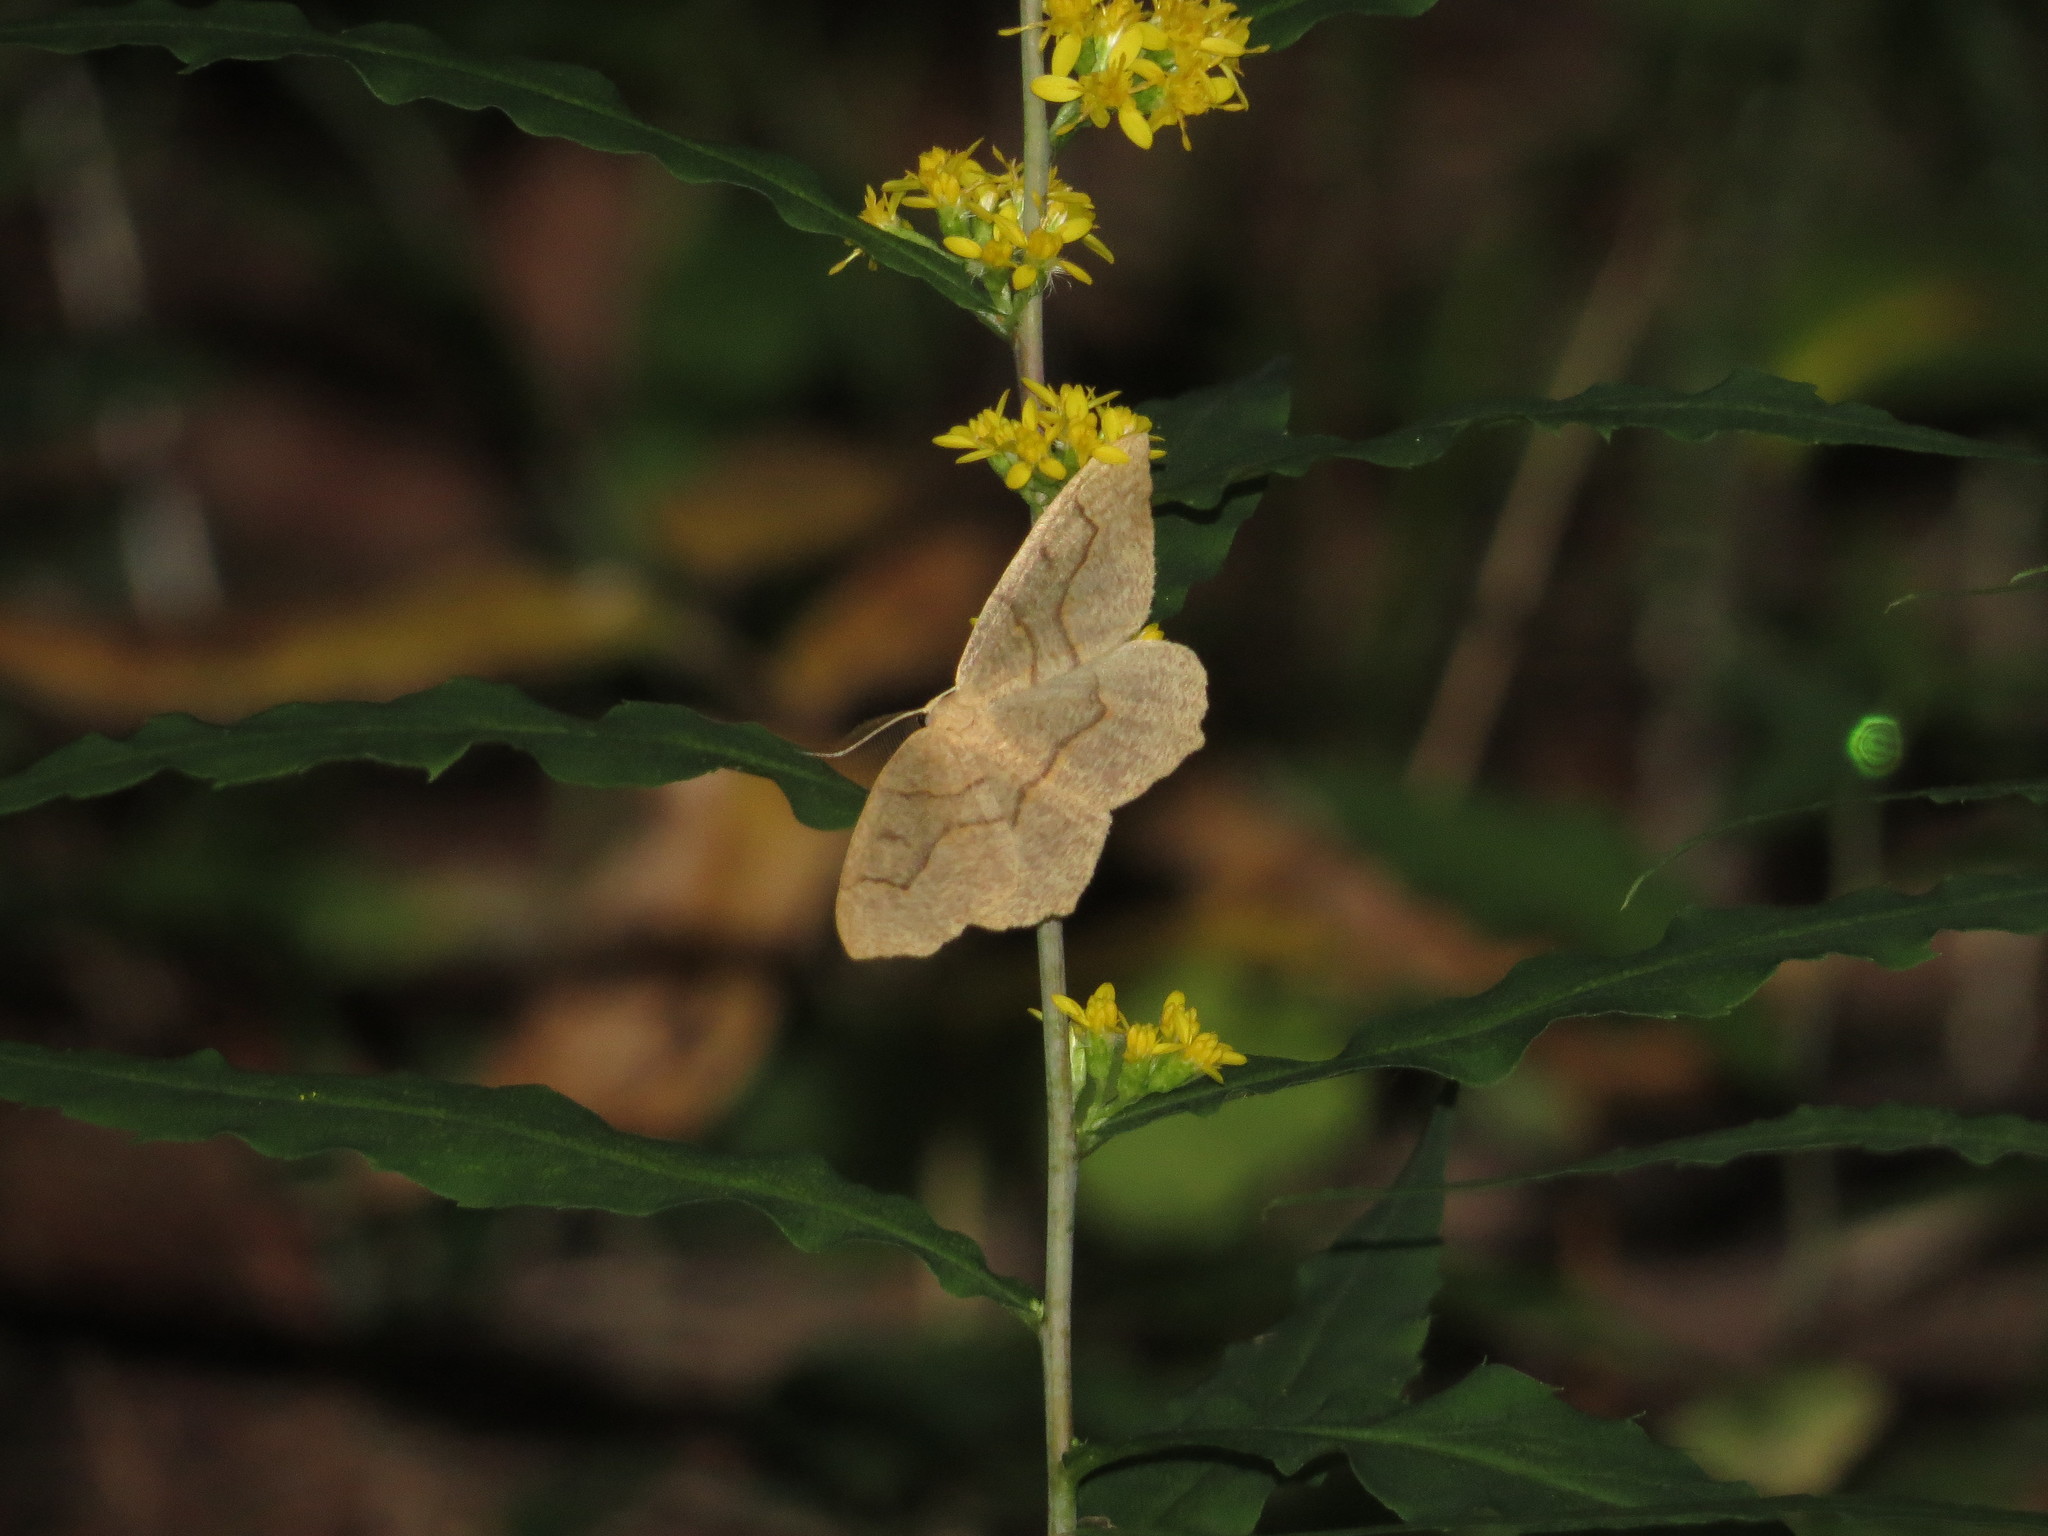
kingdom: Animalia
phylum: Arthropoda
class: Insecta
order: Lepidoptera
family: Geometridae
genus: Lambdina
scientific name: Lambdina fiscellaria
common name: Hemlock looper
